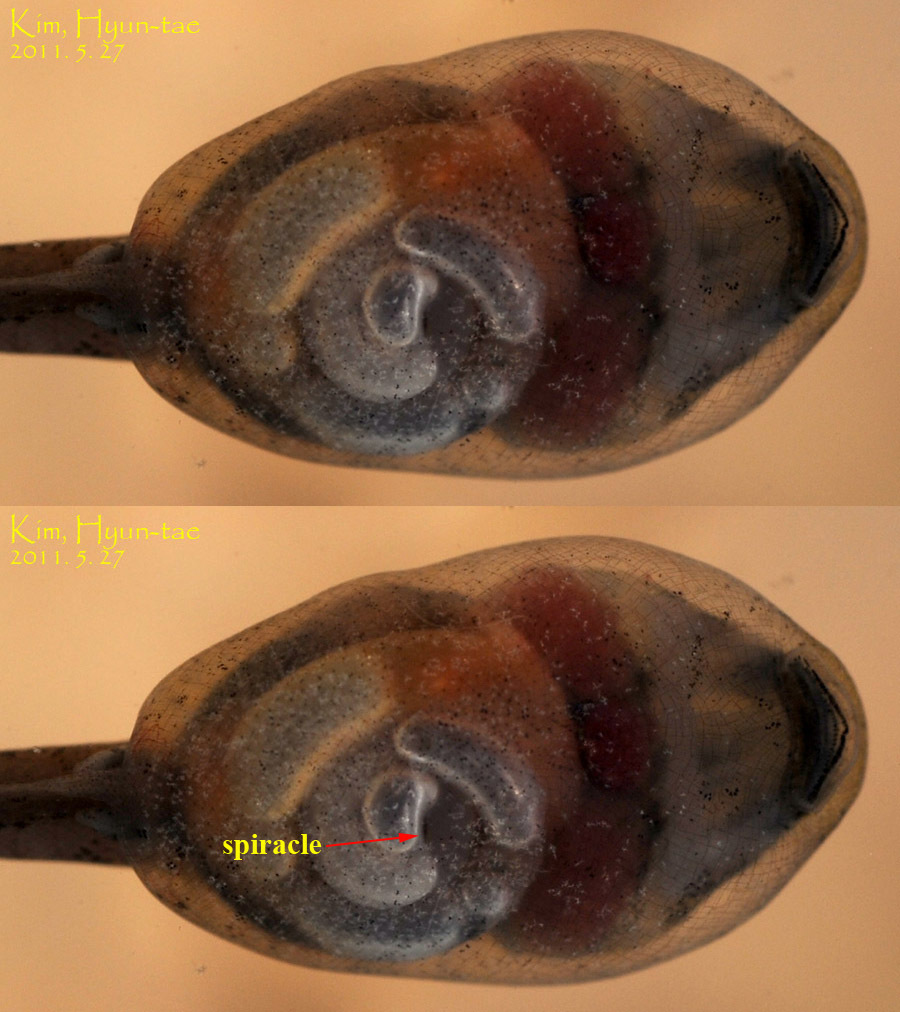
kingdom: Animalia
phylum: Chordata
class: Amphibia
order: Anura
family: Bombinatoridae
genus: Bombina
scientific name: Bombina orientalis
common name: Oriental firebelly toad
